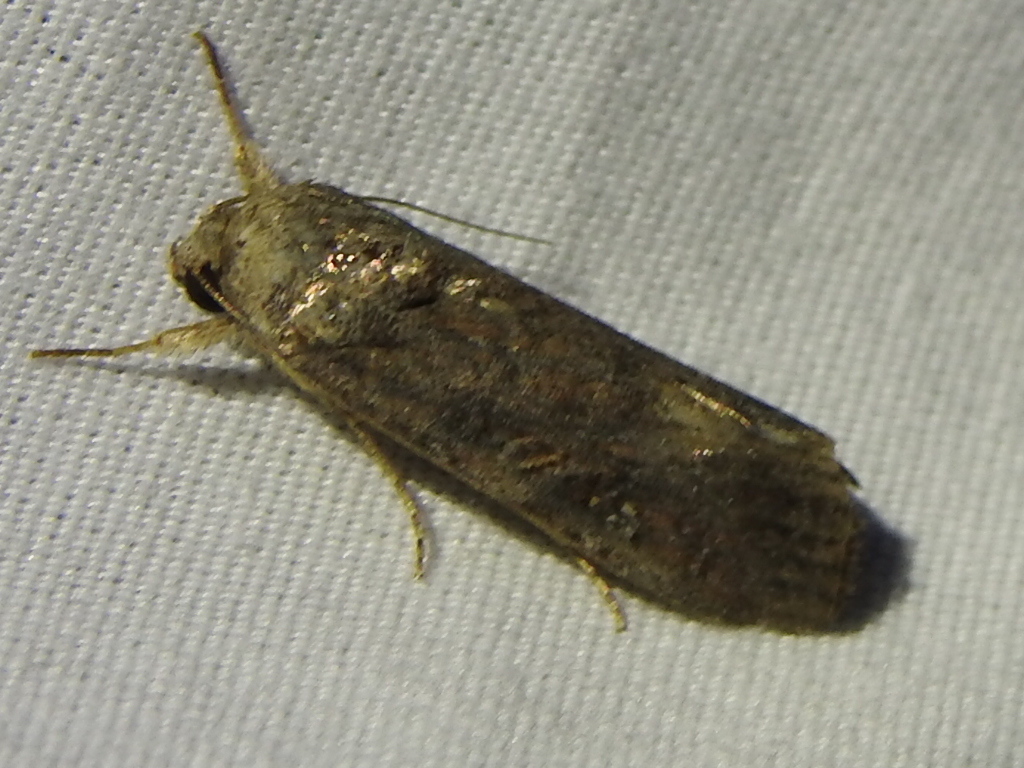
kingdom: Animalia
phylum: Arthropoda
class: Insecta
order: Lepidoptera
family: Noctuidae
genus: Spodoptera
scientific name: Spodoptera frugiperda
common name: Fall armyworm
